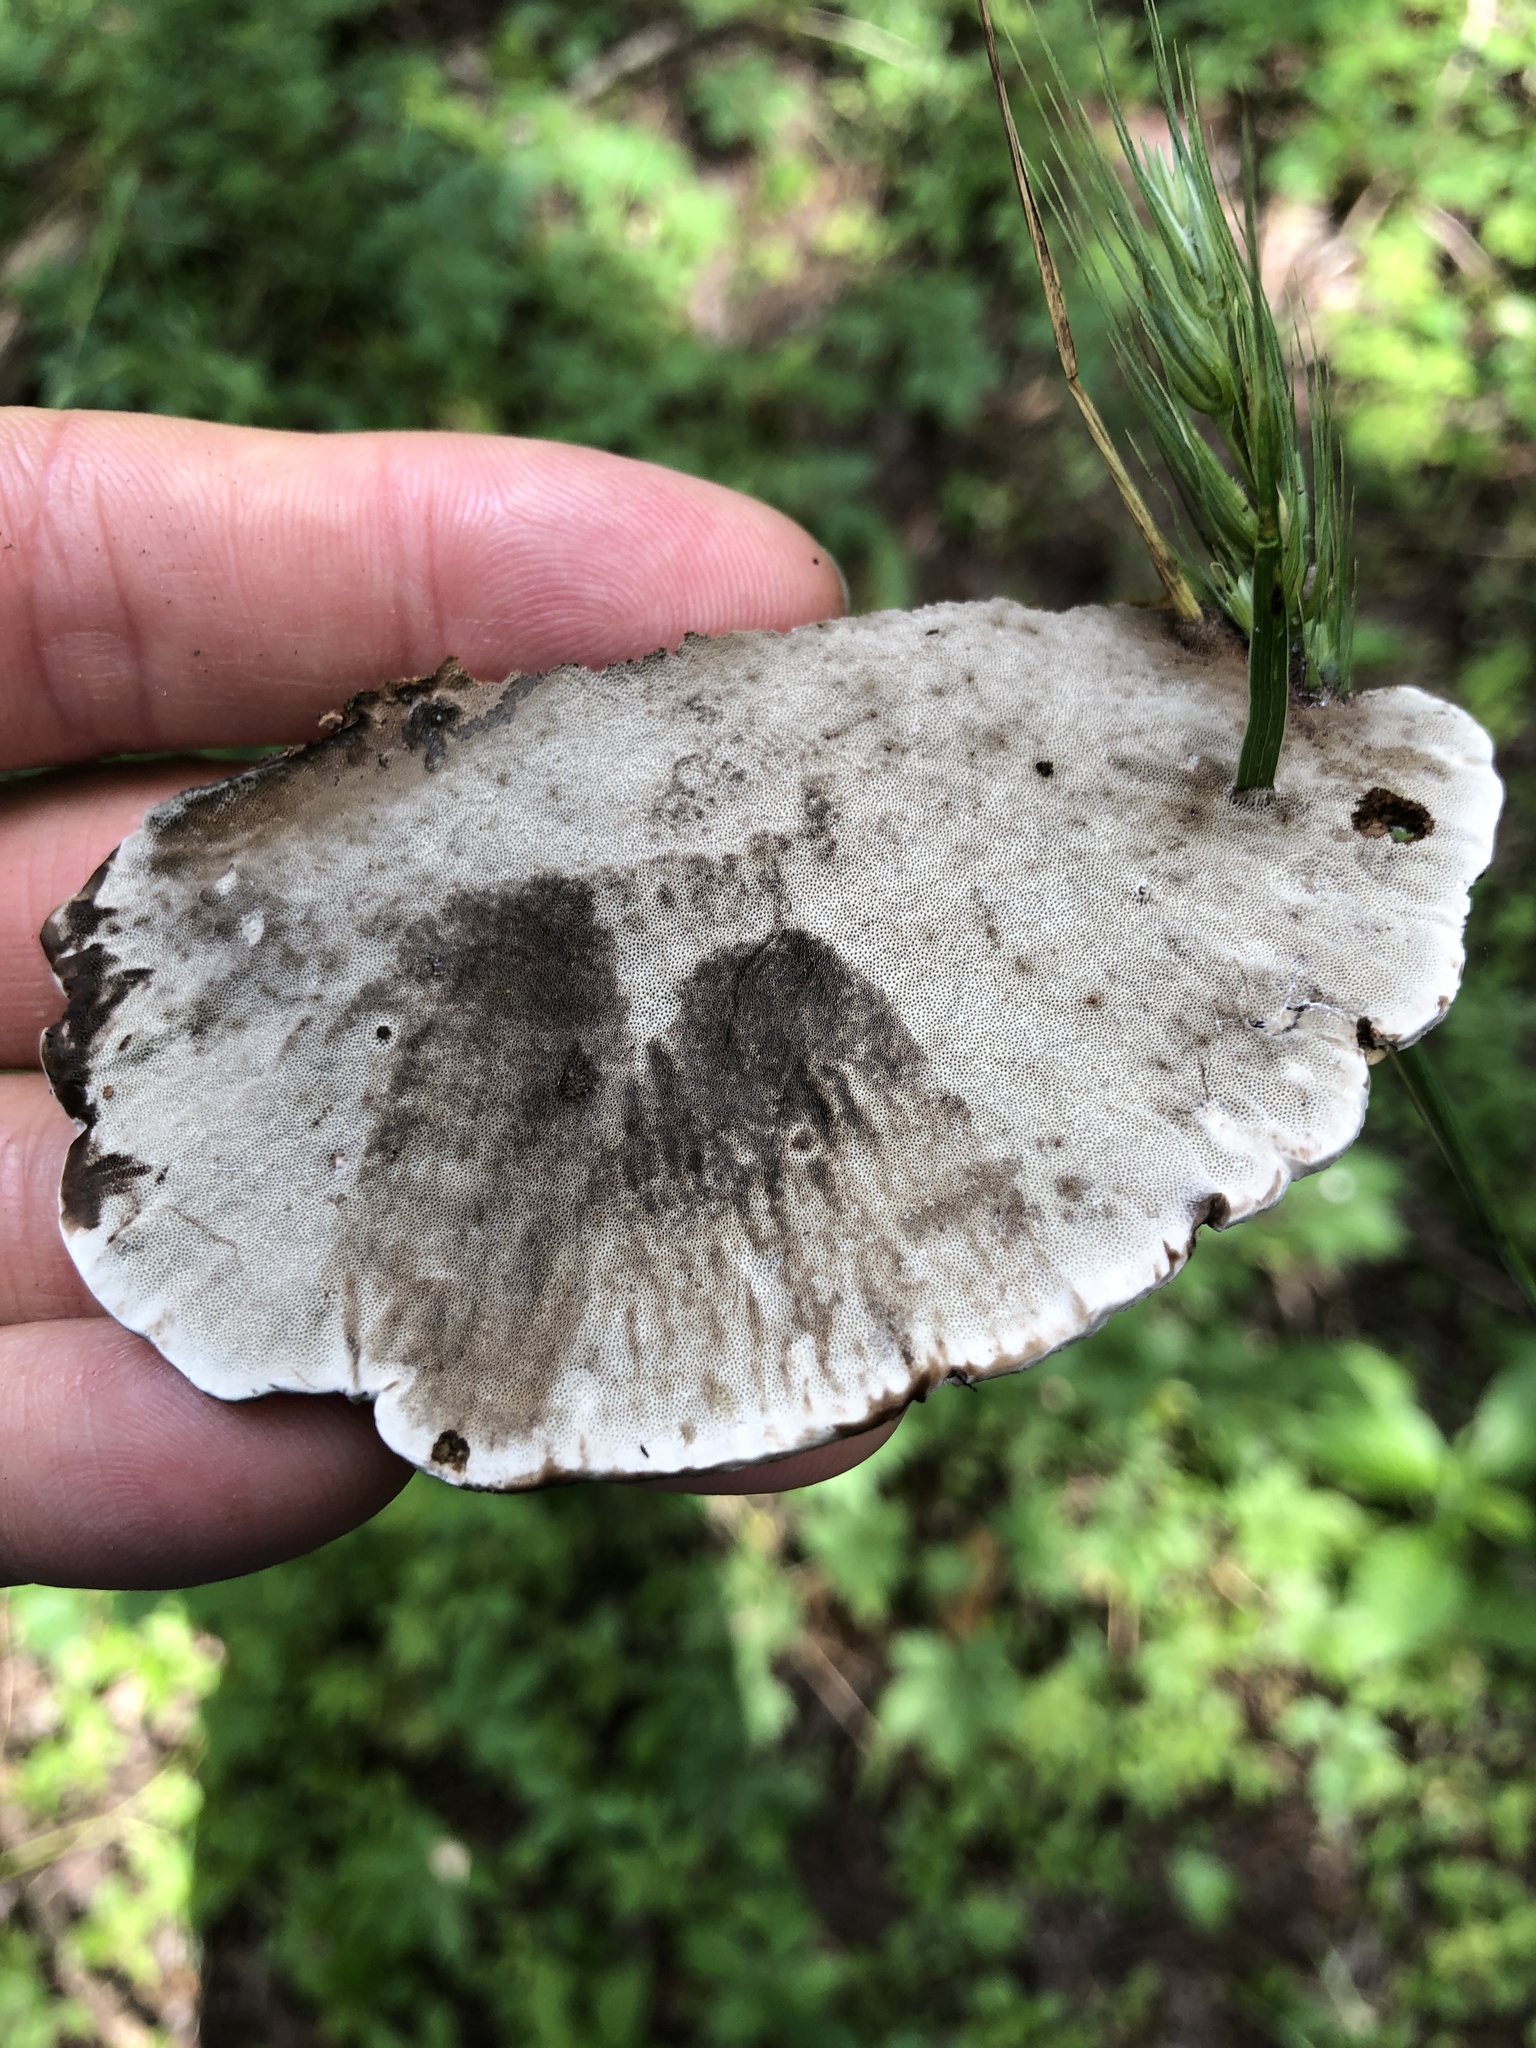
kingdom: Fungi
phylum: Basidiomycota
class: Agaricomycetes
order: Polyporales
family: Cerrenaceae
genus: Cerrena
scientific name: Cerrena hydnoides
